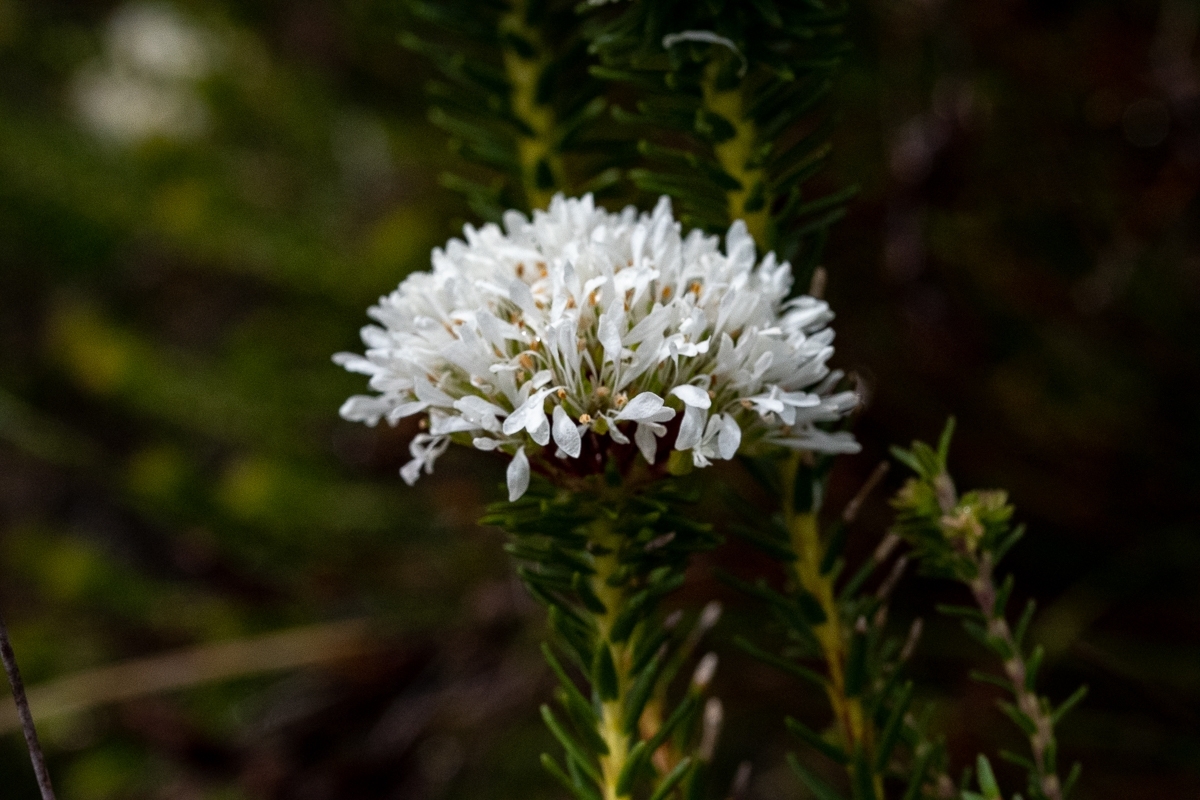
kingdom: Plantae
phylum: Tracheophyta
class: Magnoliopsida
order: Sapindales
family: Rutaceae
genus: Agathosma
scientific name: Agathosma bifida
